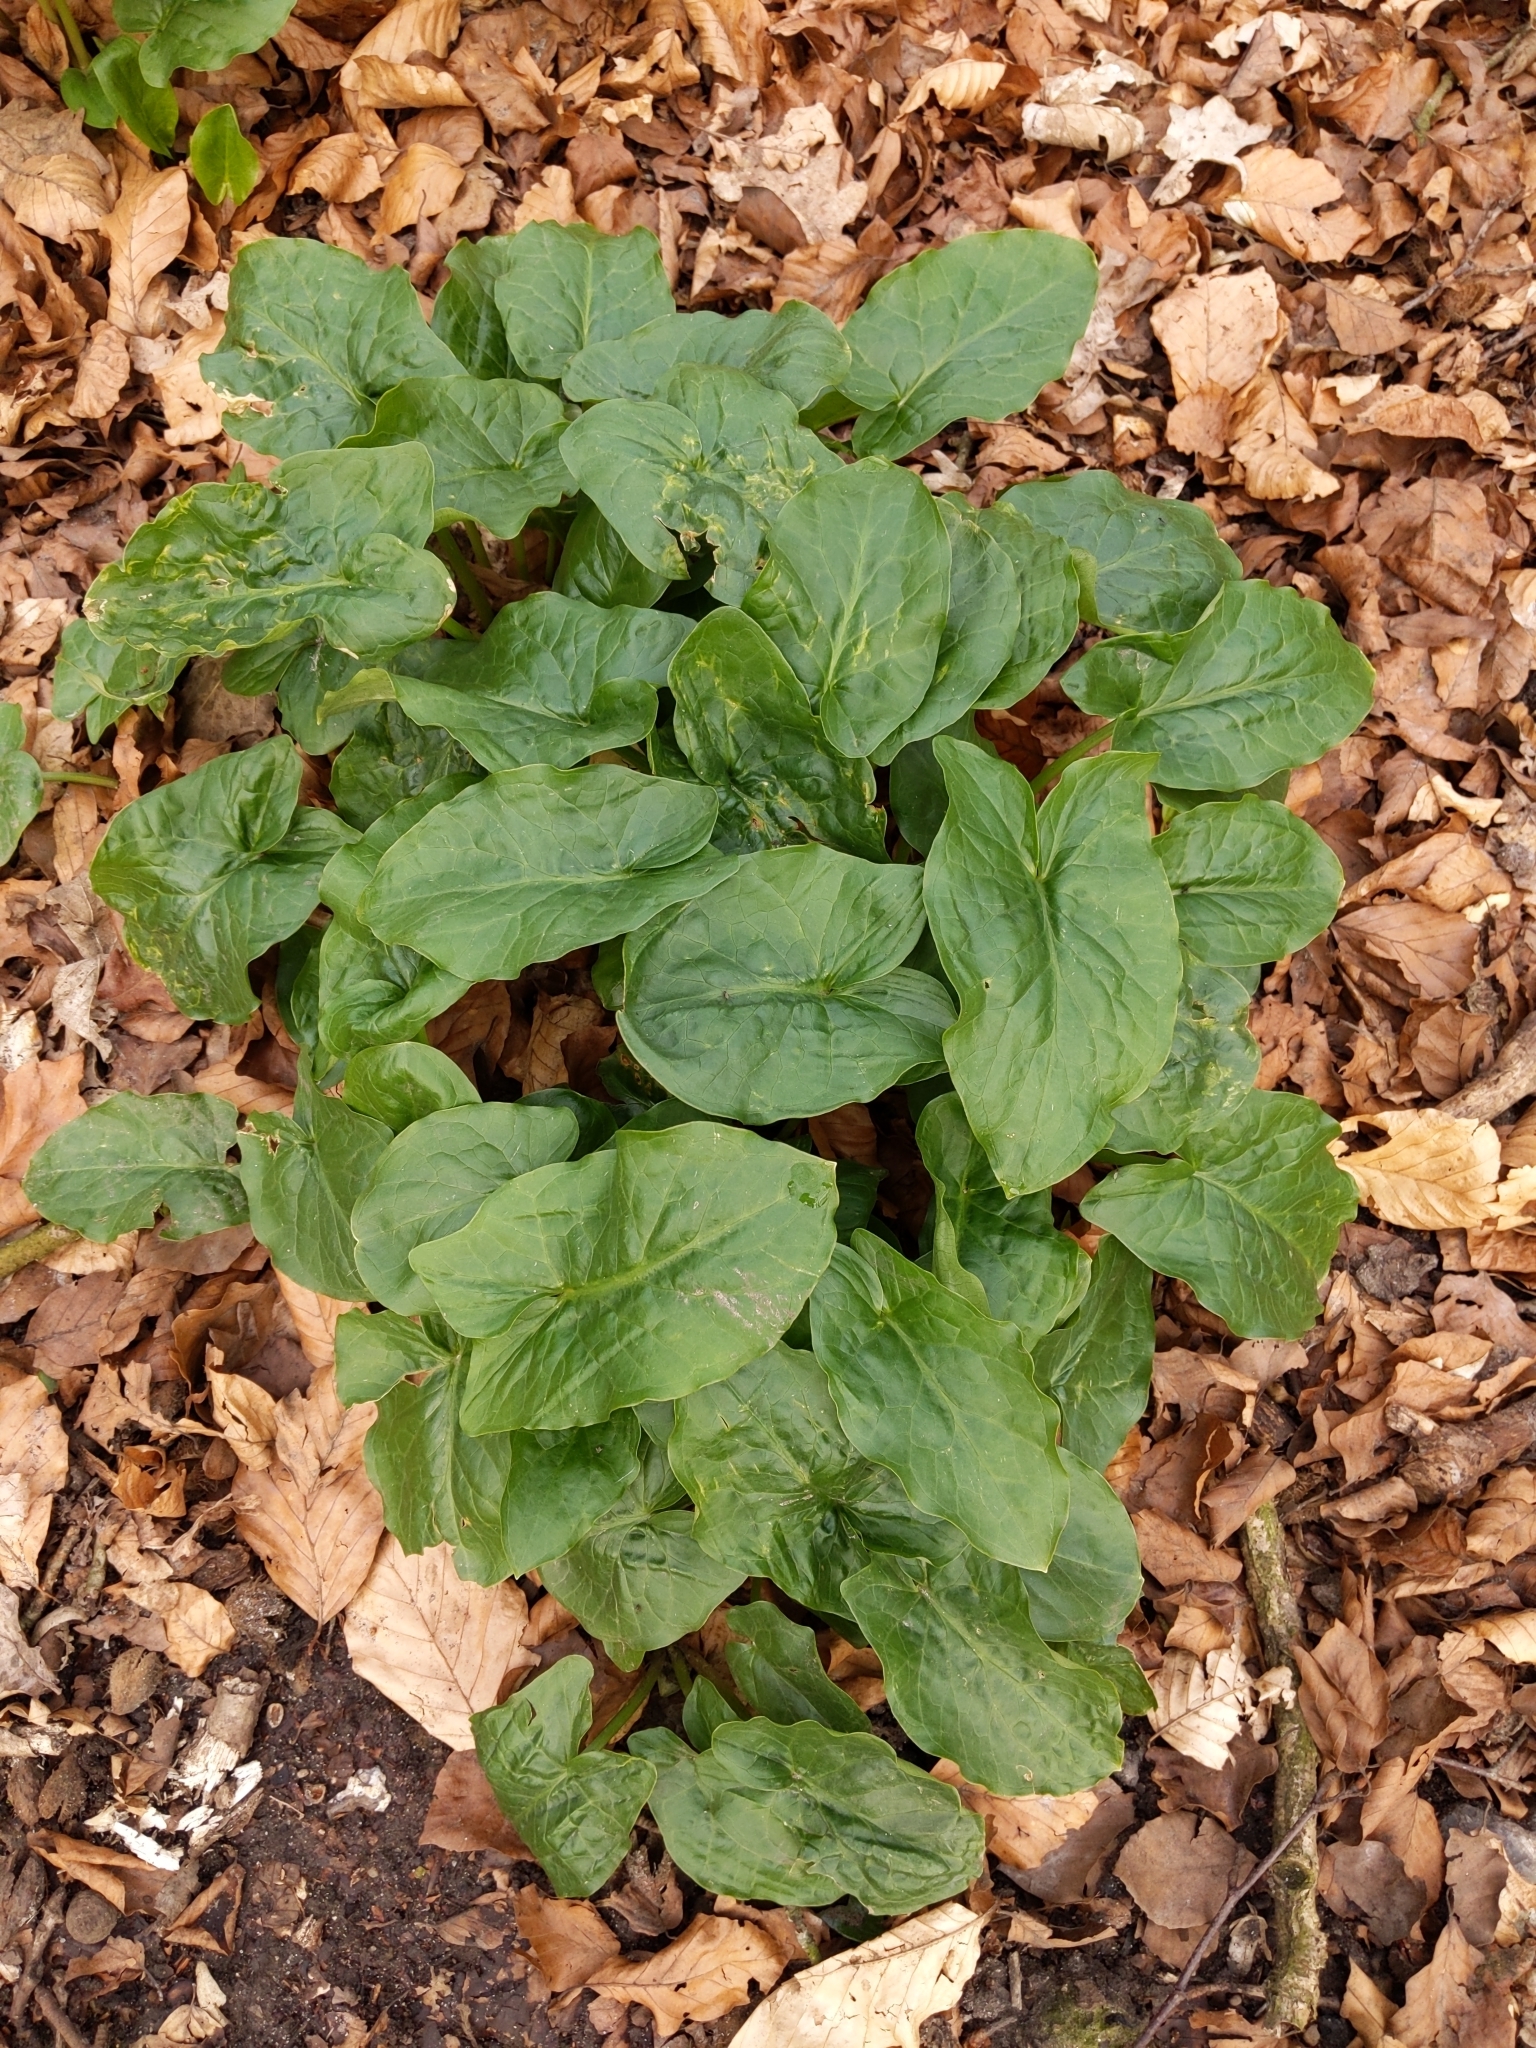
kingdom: Plantae
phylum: Tracheophyta
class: Liliopsida
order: Alismatales
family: Araceae
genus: Arum
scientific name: Arum maculatum
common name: Lords-and-ladies
